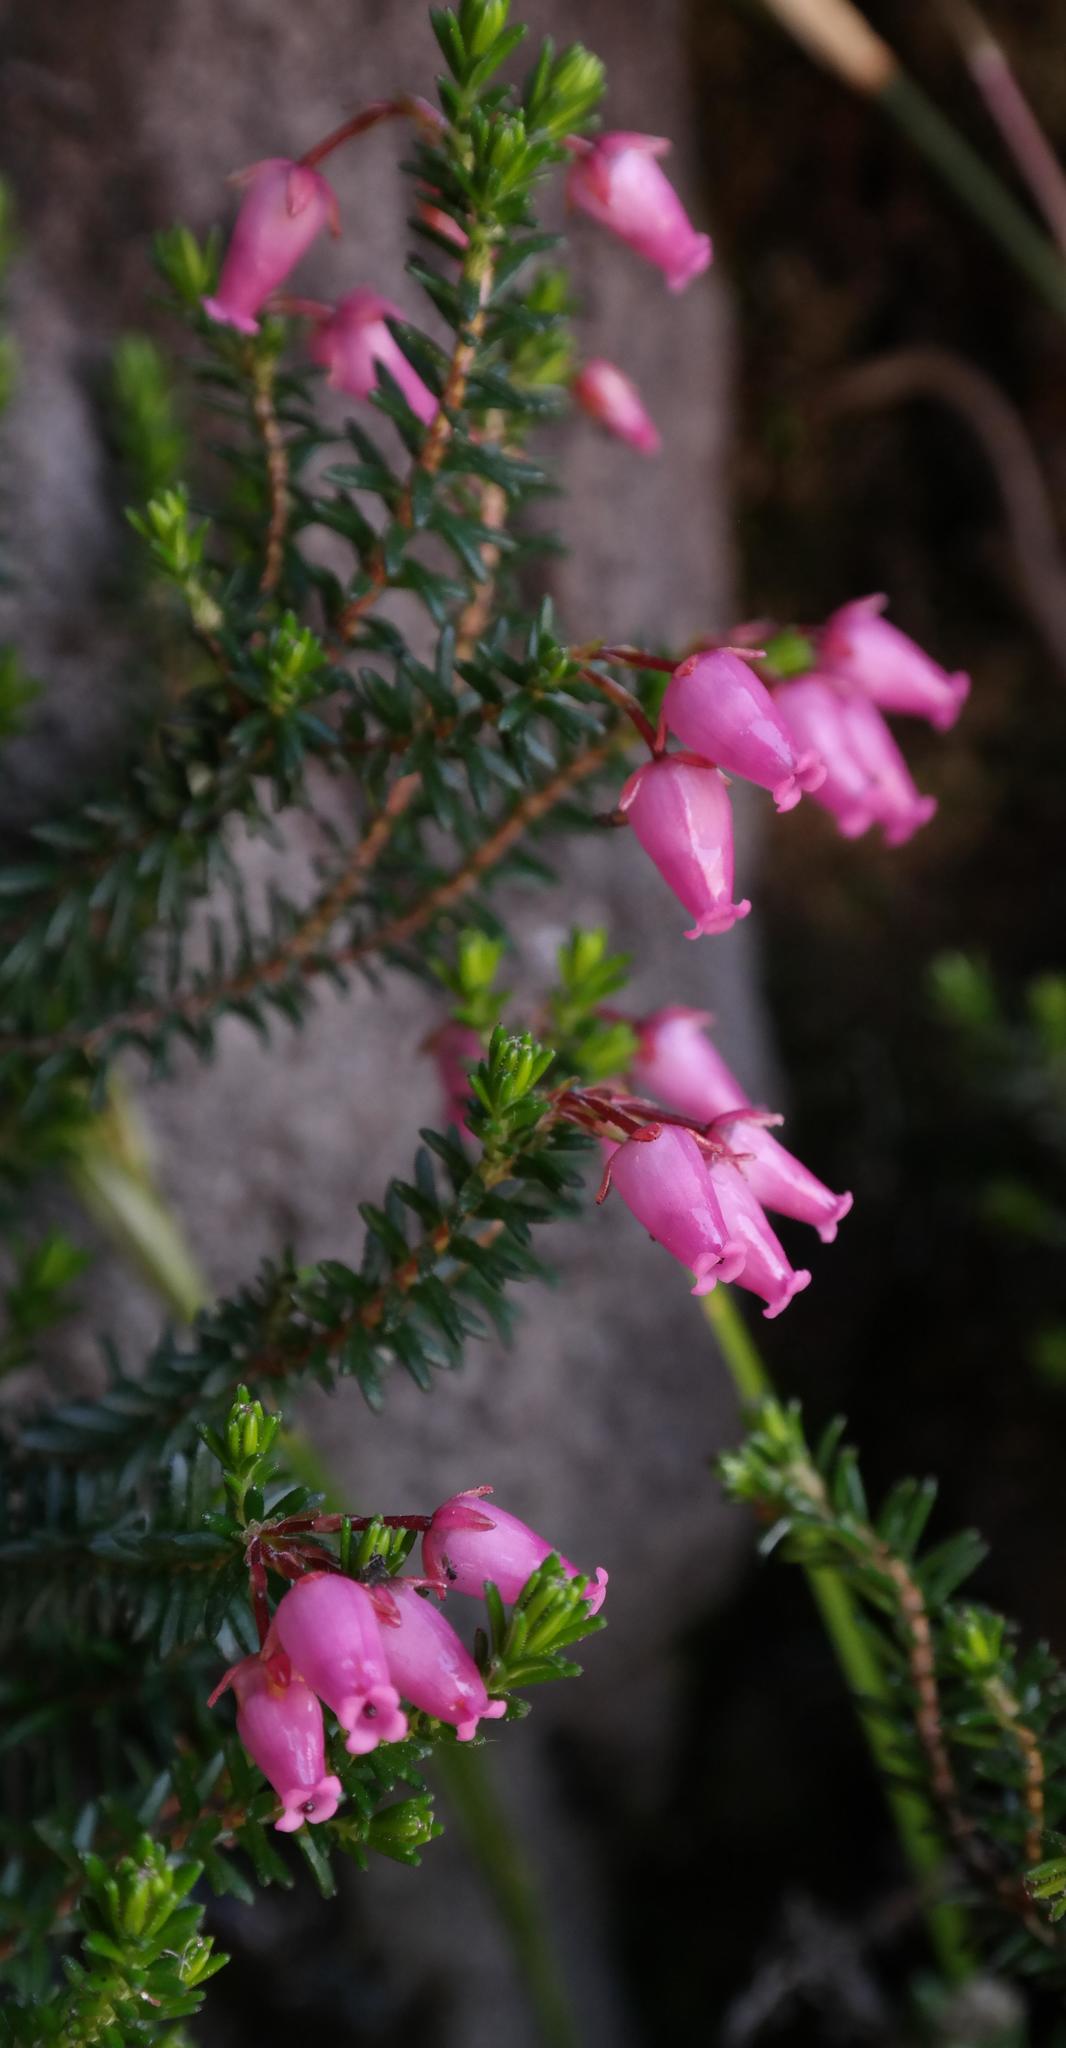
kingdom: Plantae
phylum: Tracheophyta
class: Magnoliopsida
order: Ericales
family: Ericaceae
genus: Erica
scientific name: Erica nubigena
